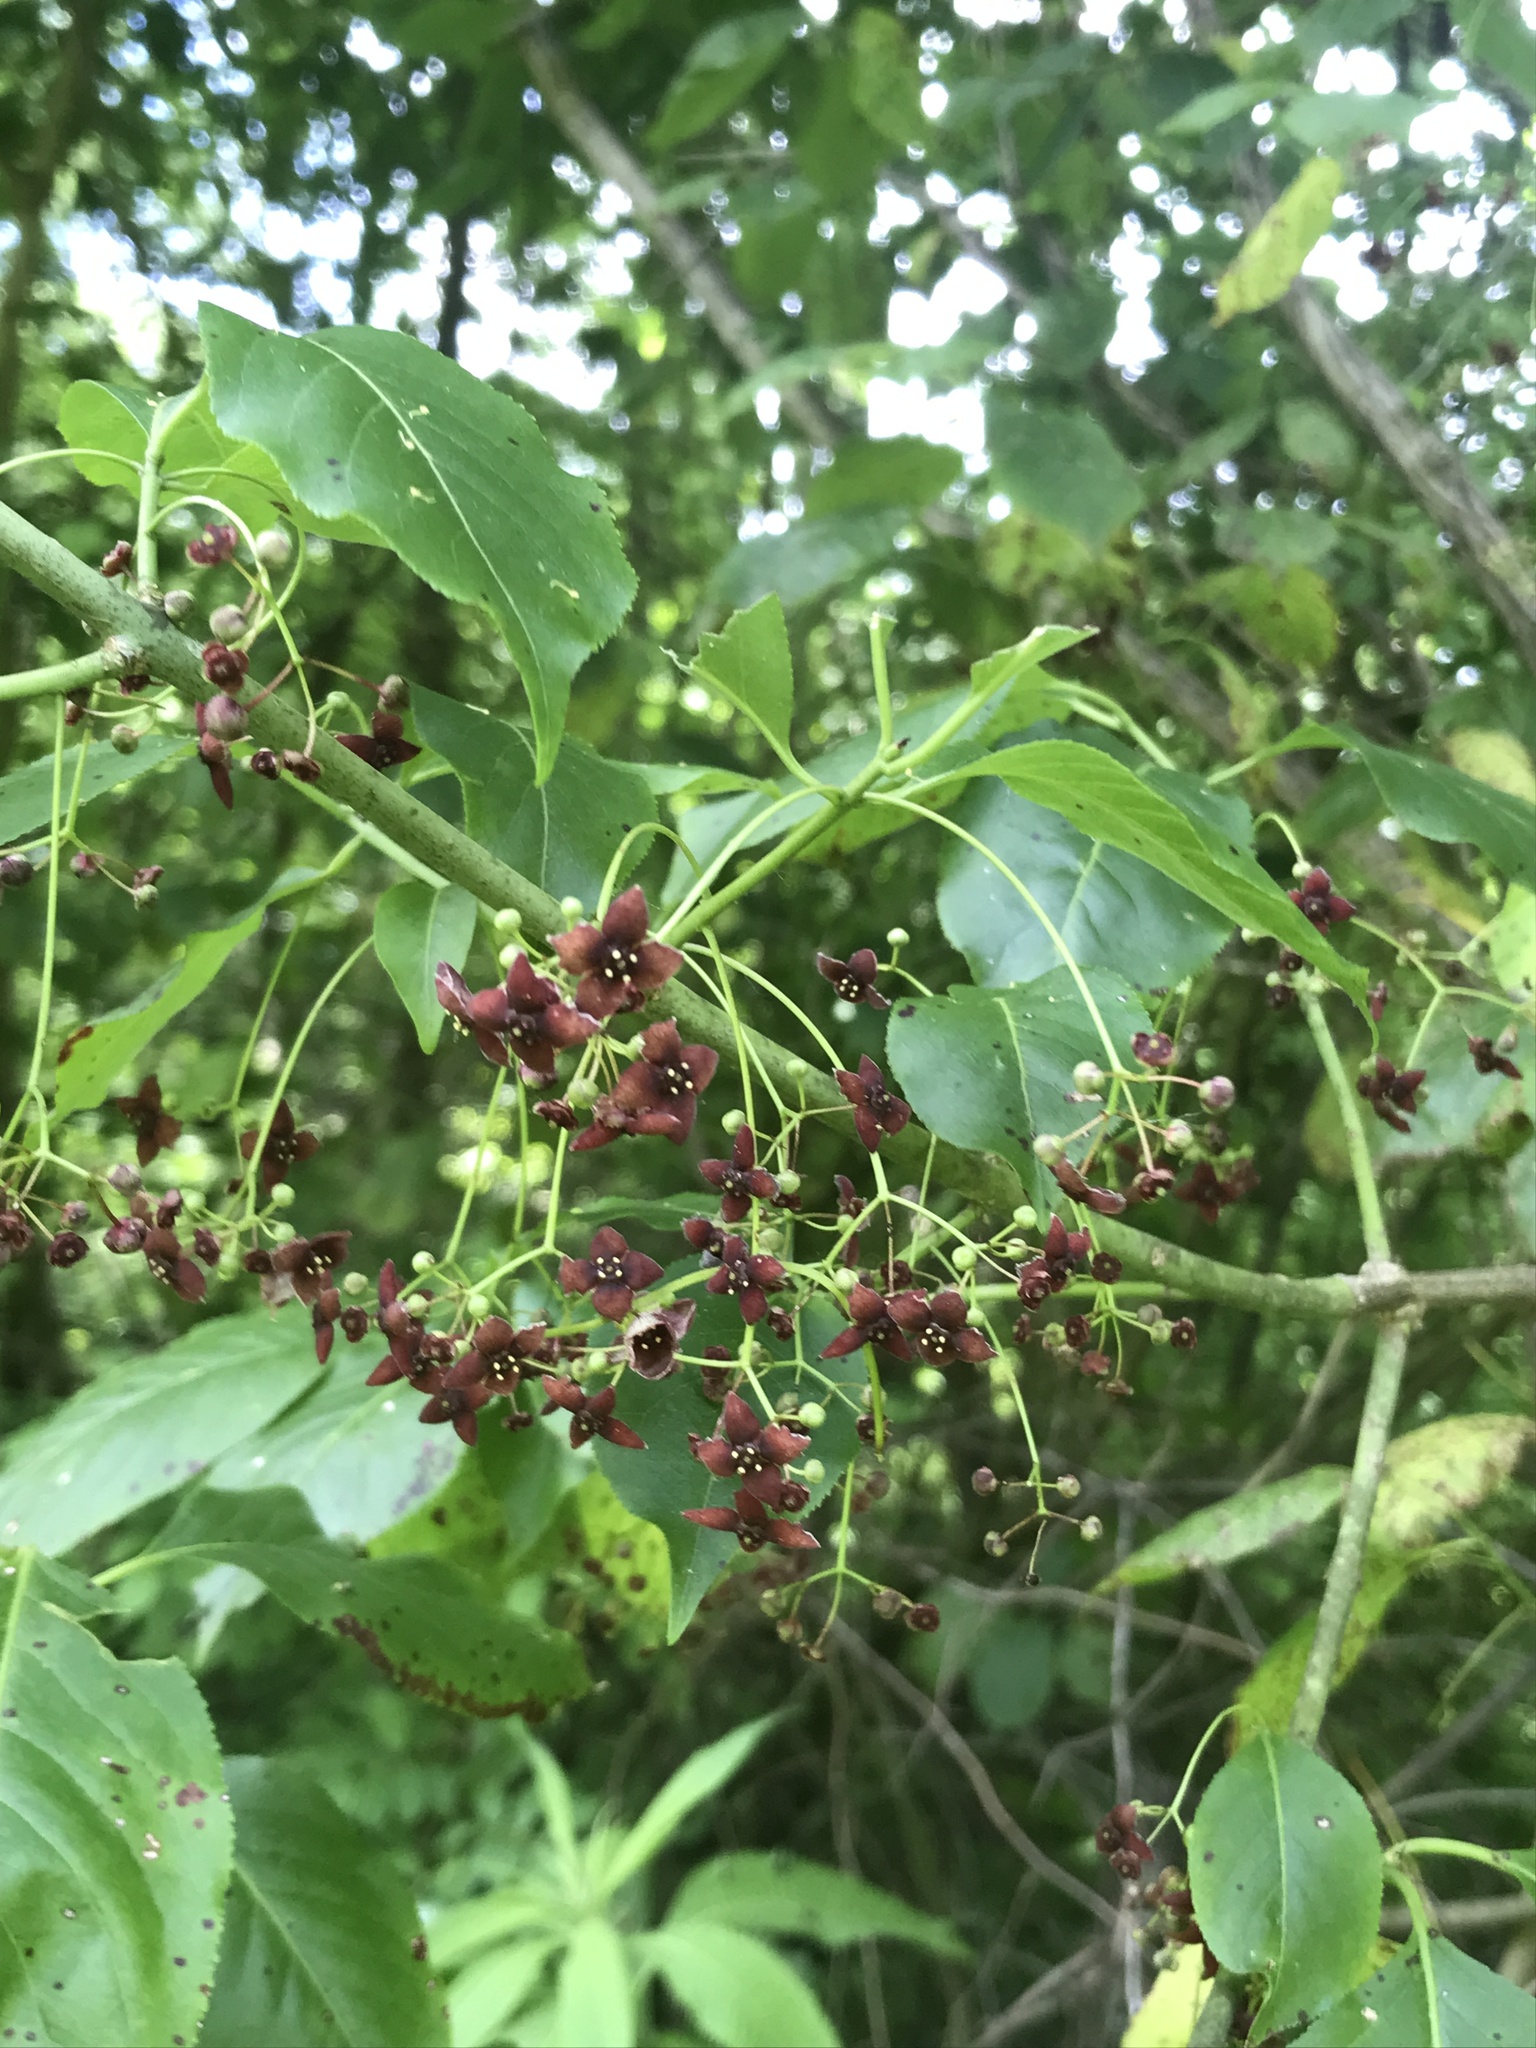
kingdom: Plantae
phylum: Tracheophyta
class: Magnoliopsida
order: Celastrales
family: Celastraceae
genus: Euonymus
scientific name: Euonymus atropurpureus
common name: Eastern wahoo
